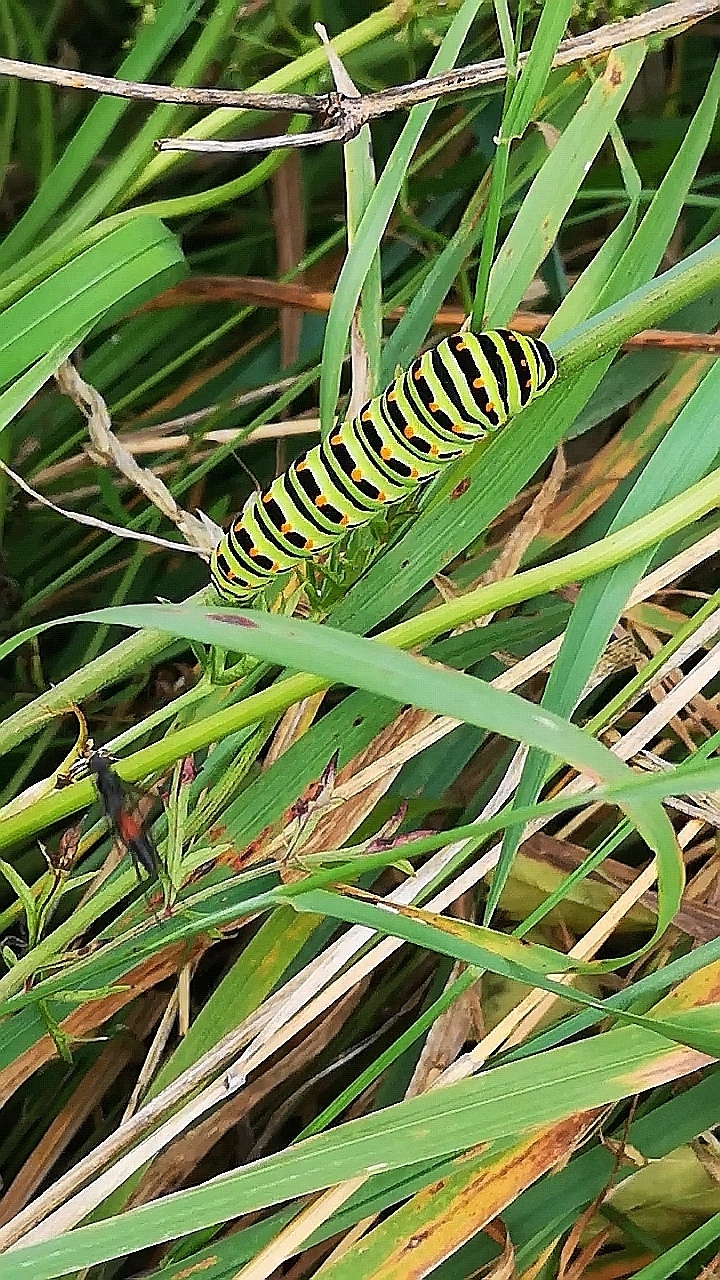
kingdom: Animalia
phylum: Arthropoda
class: Insecta
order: Lepidoptera
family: Papilionidae
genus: Papilio
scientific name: Papilio machaon
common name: Swallowtail
